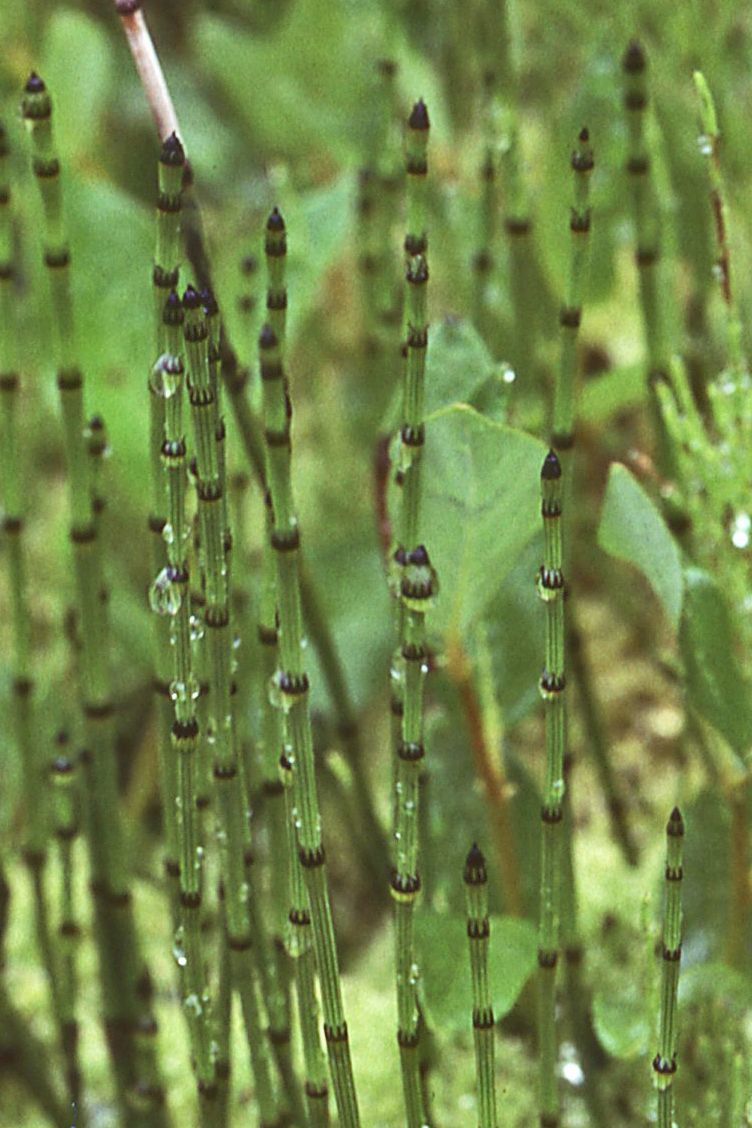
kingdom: Plantae
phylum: Tracheophyta
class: Polypodiopsida
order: Equisetales
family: Equisetaceae
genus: Equisetum
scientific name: Equisetum variegatum
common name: Variegated horsetail
